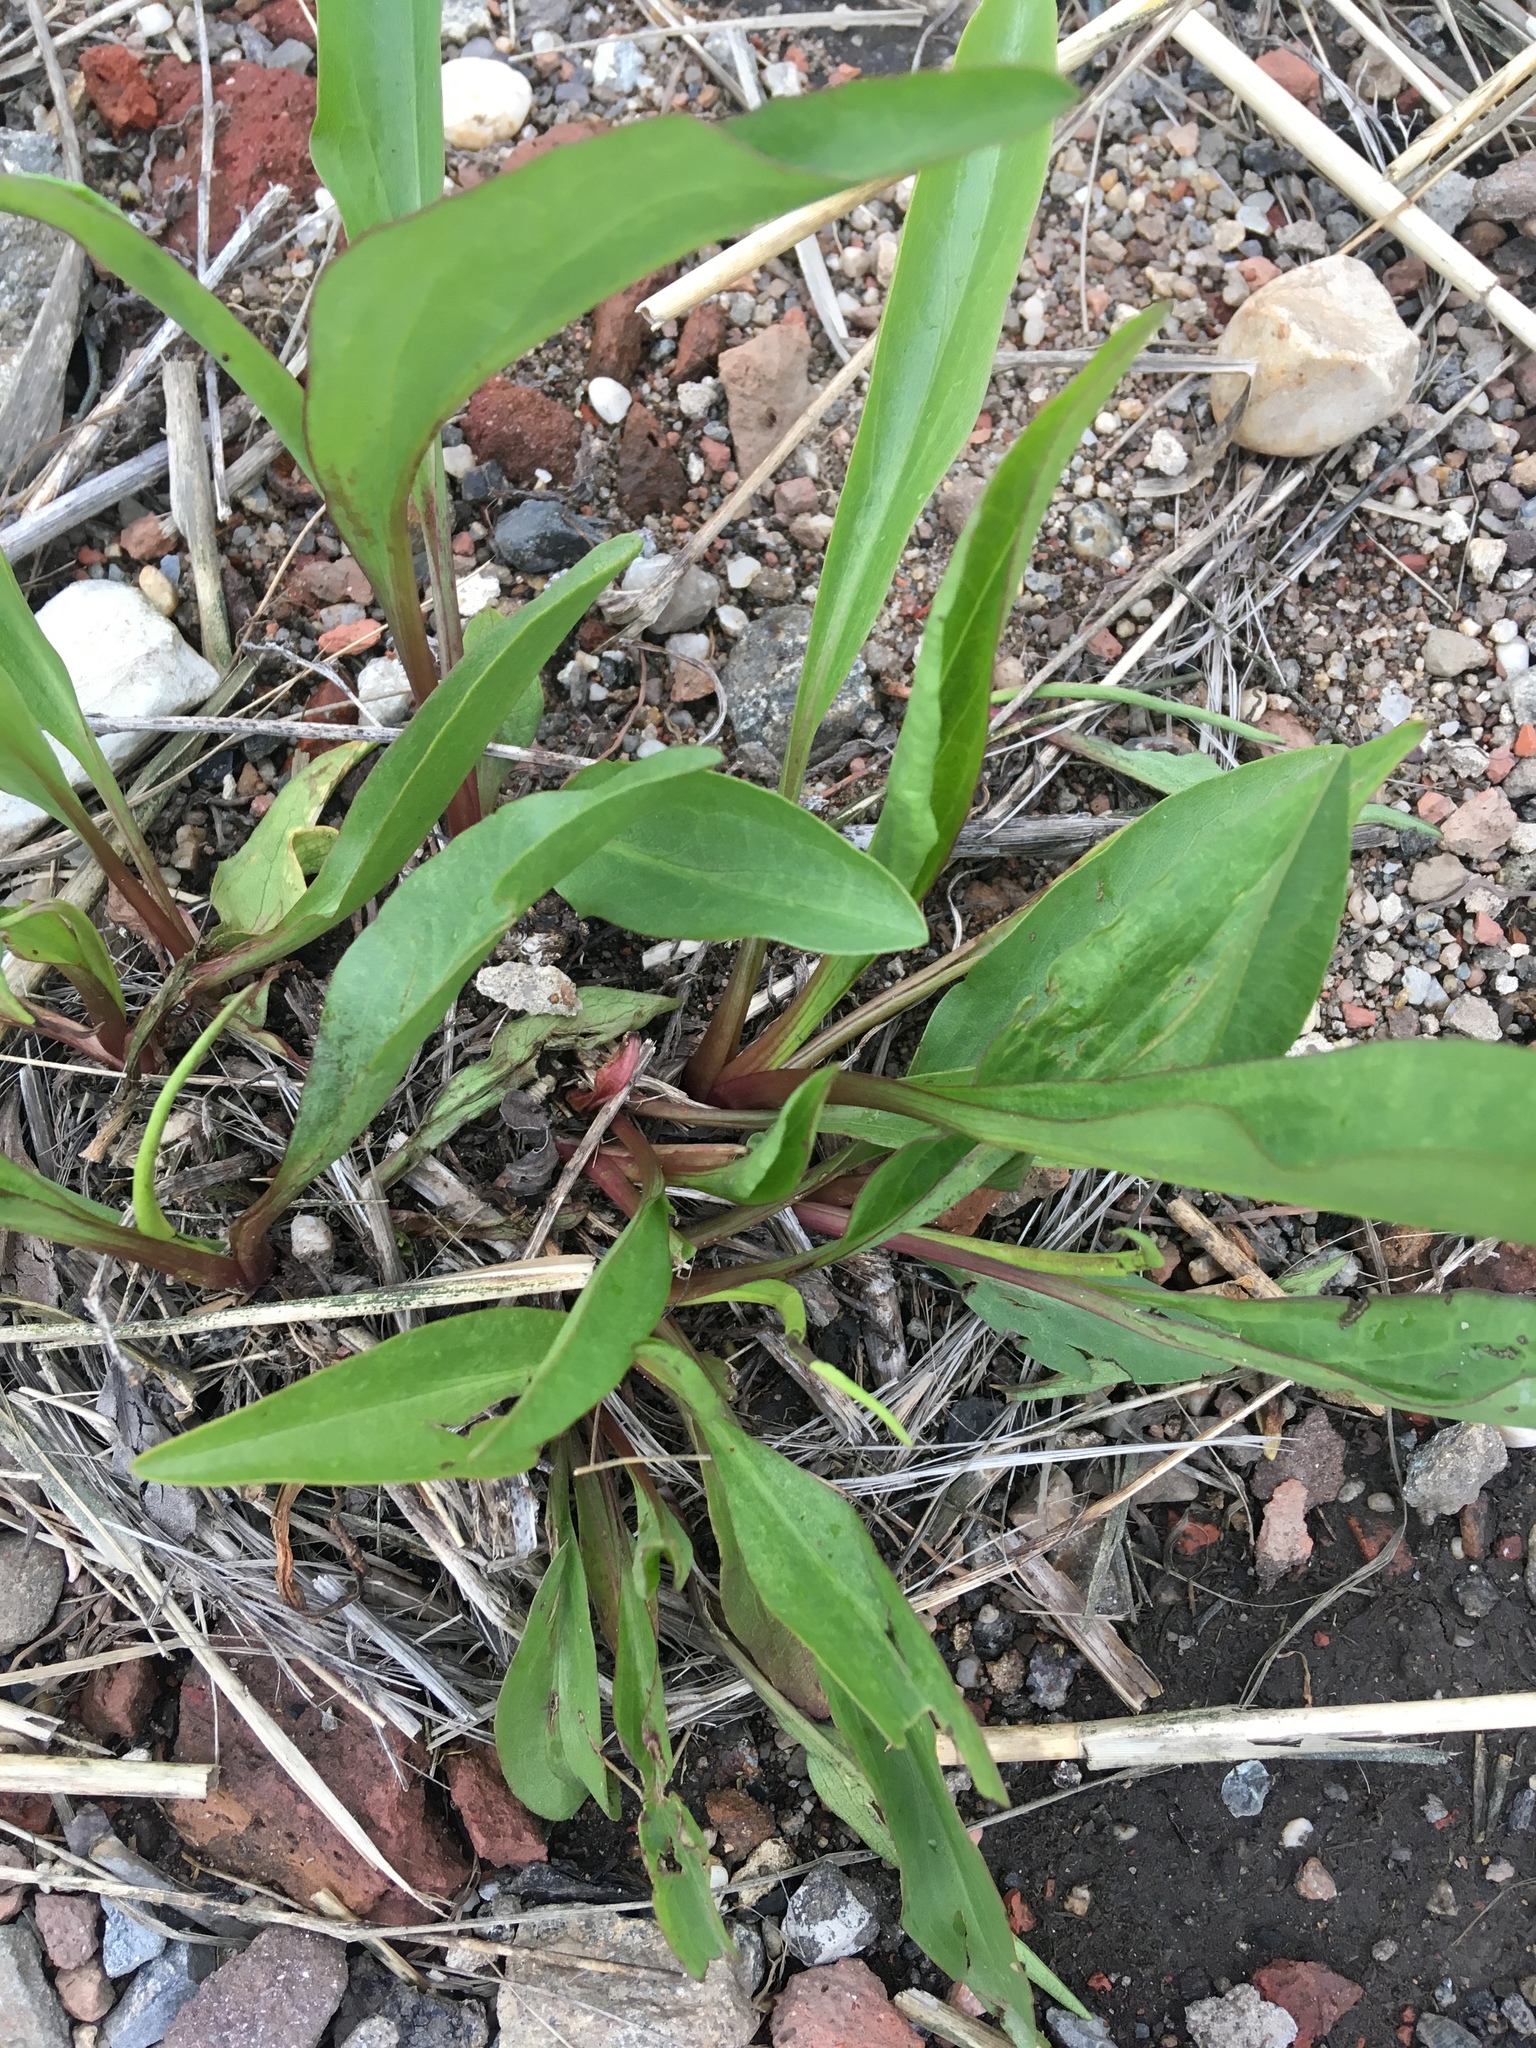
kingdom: Plantae
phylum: Tracheophyta
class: Magnoliopsida
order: Asterales
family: Asteraceae
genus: Solidago
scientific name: Solidago sempervirens
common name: Salt-marsh goldenrod
